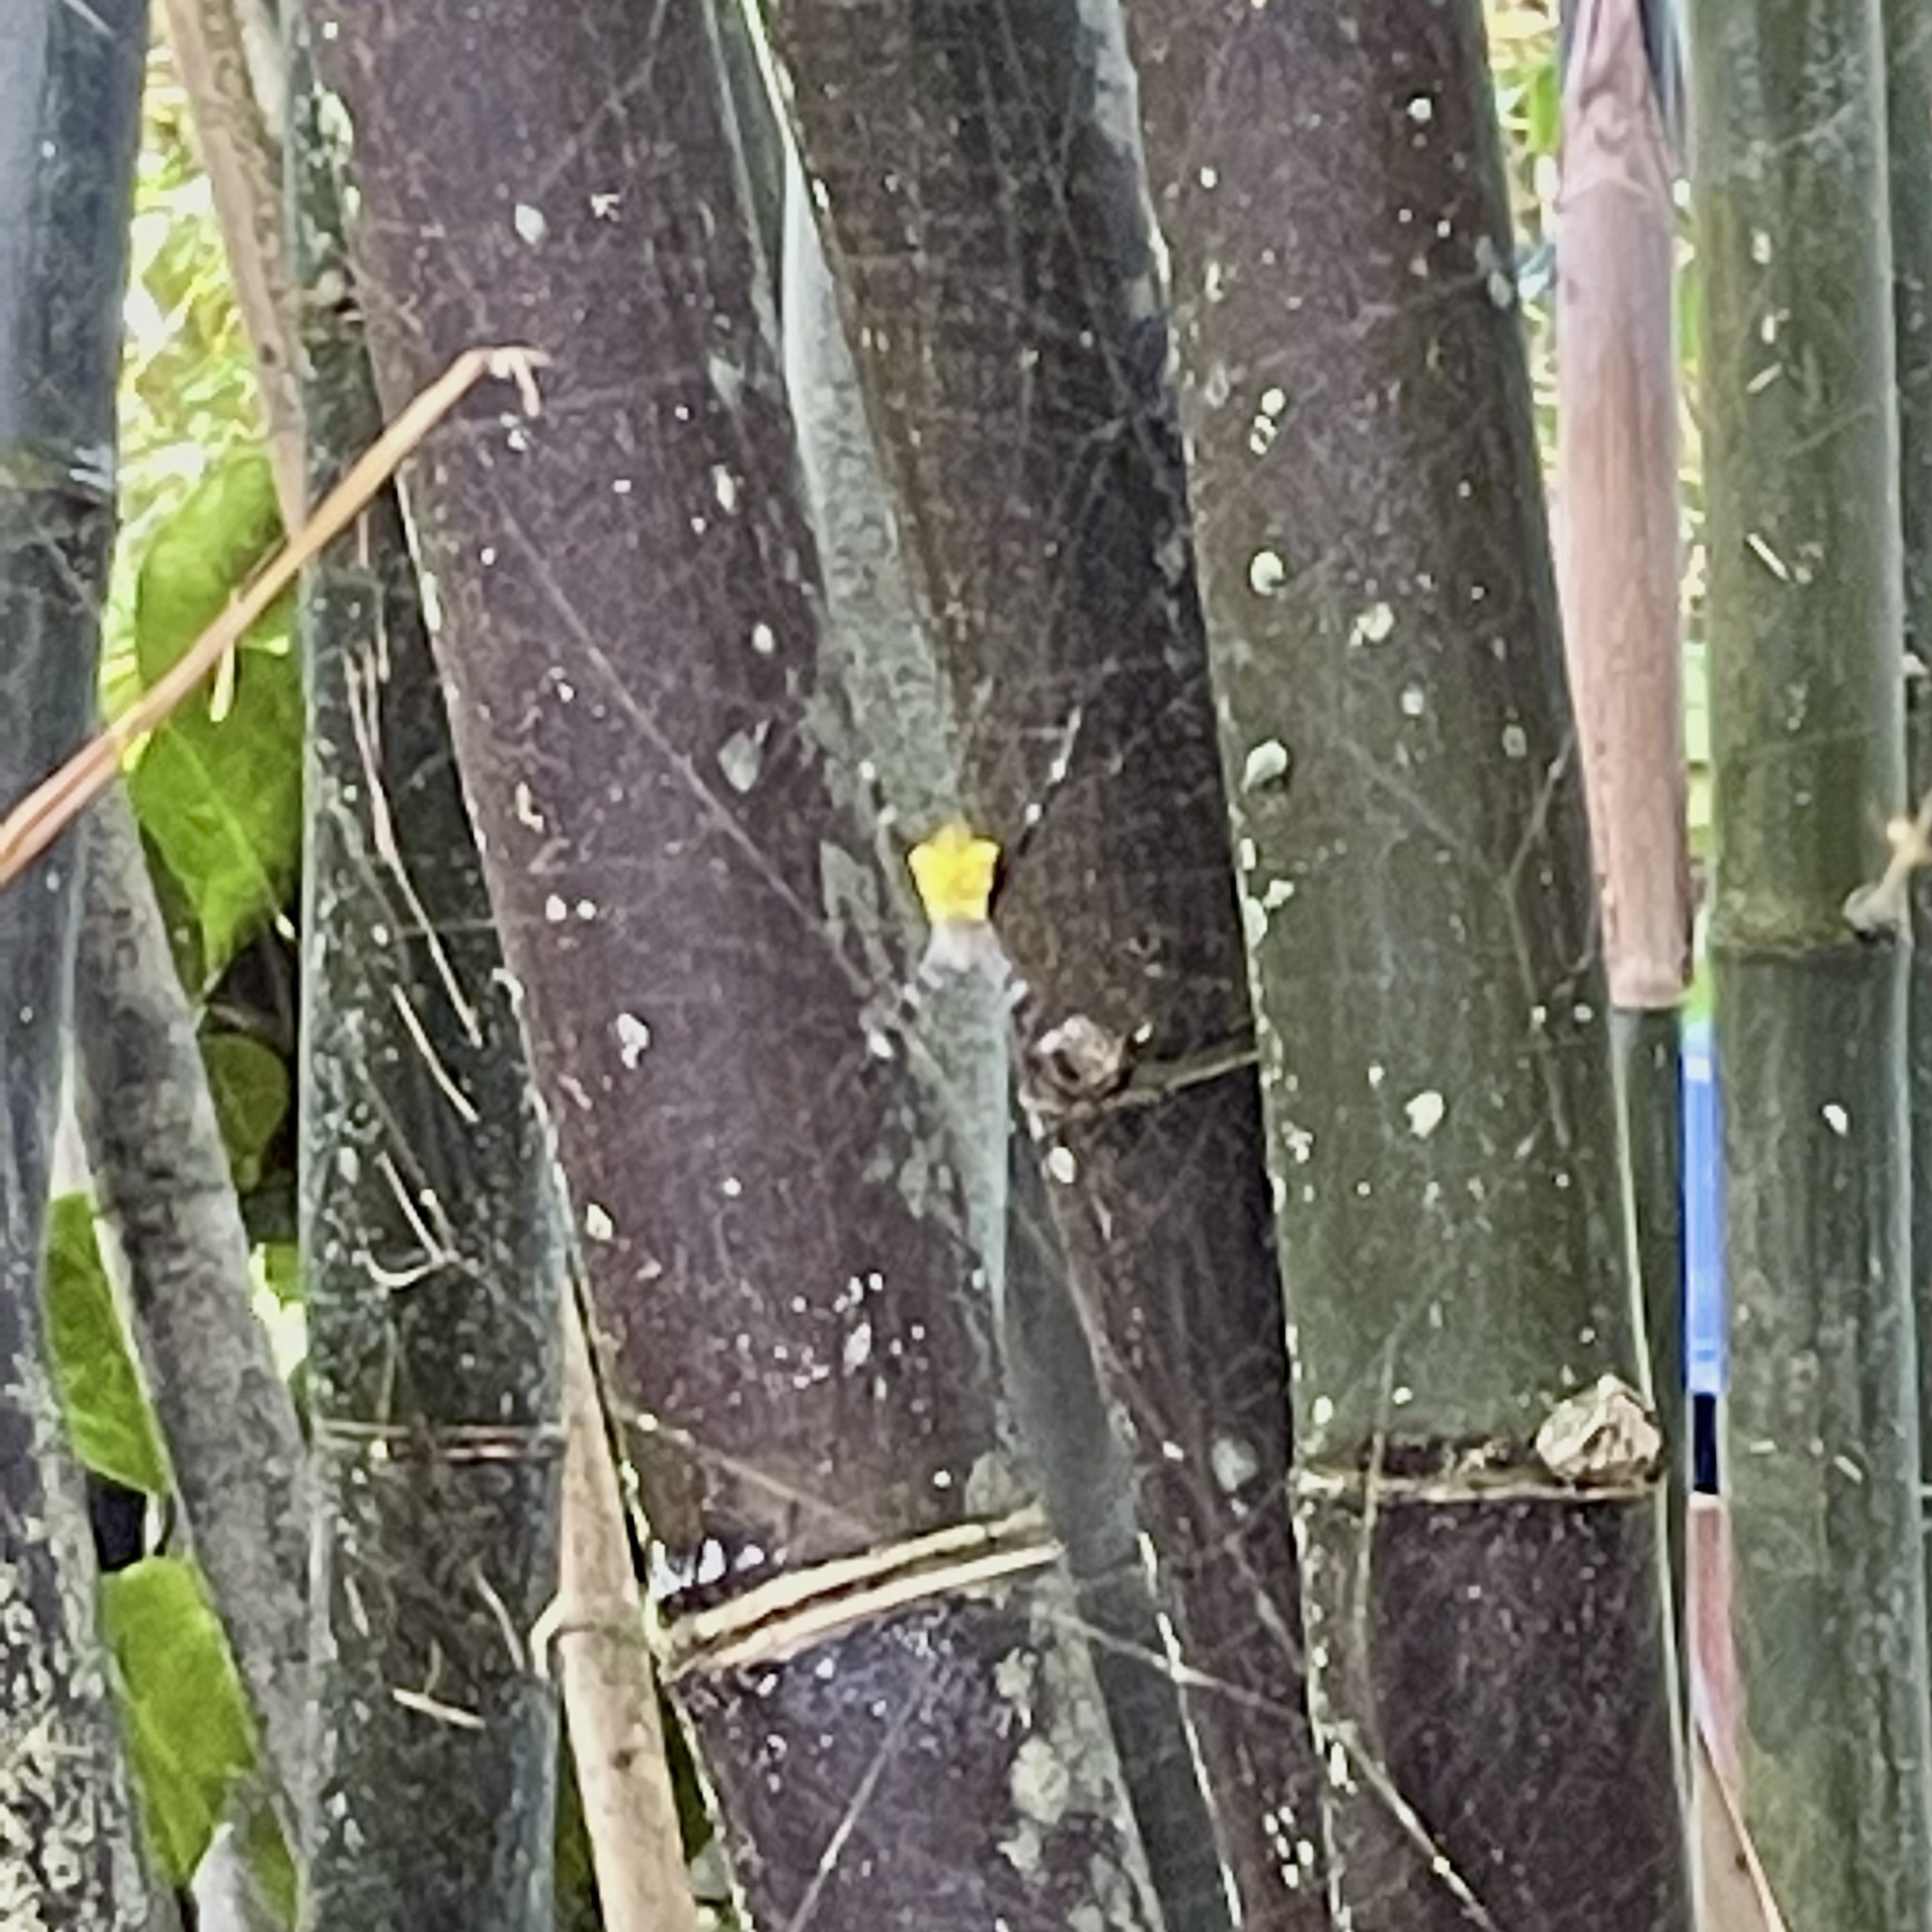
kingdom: Animalia
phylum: Arthropoda
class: Arachnida
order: Araneae
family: Araneidae
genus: Argiope
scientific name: Argiope appensa
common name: Garden spider
